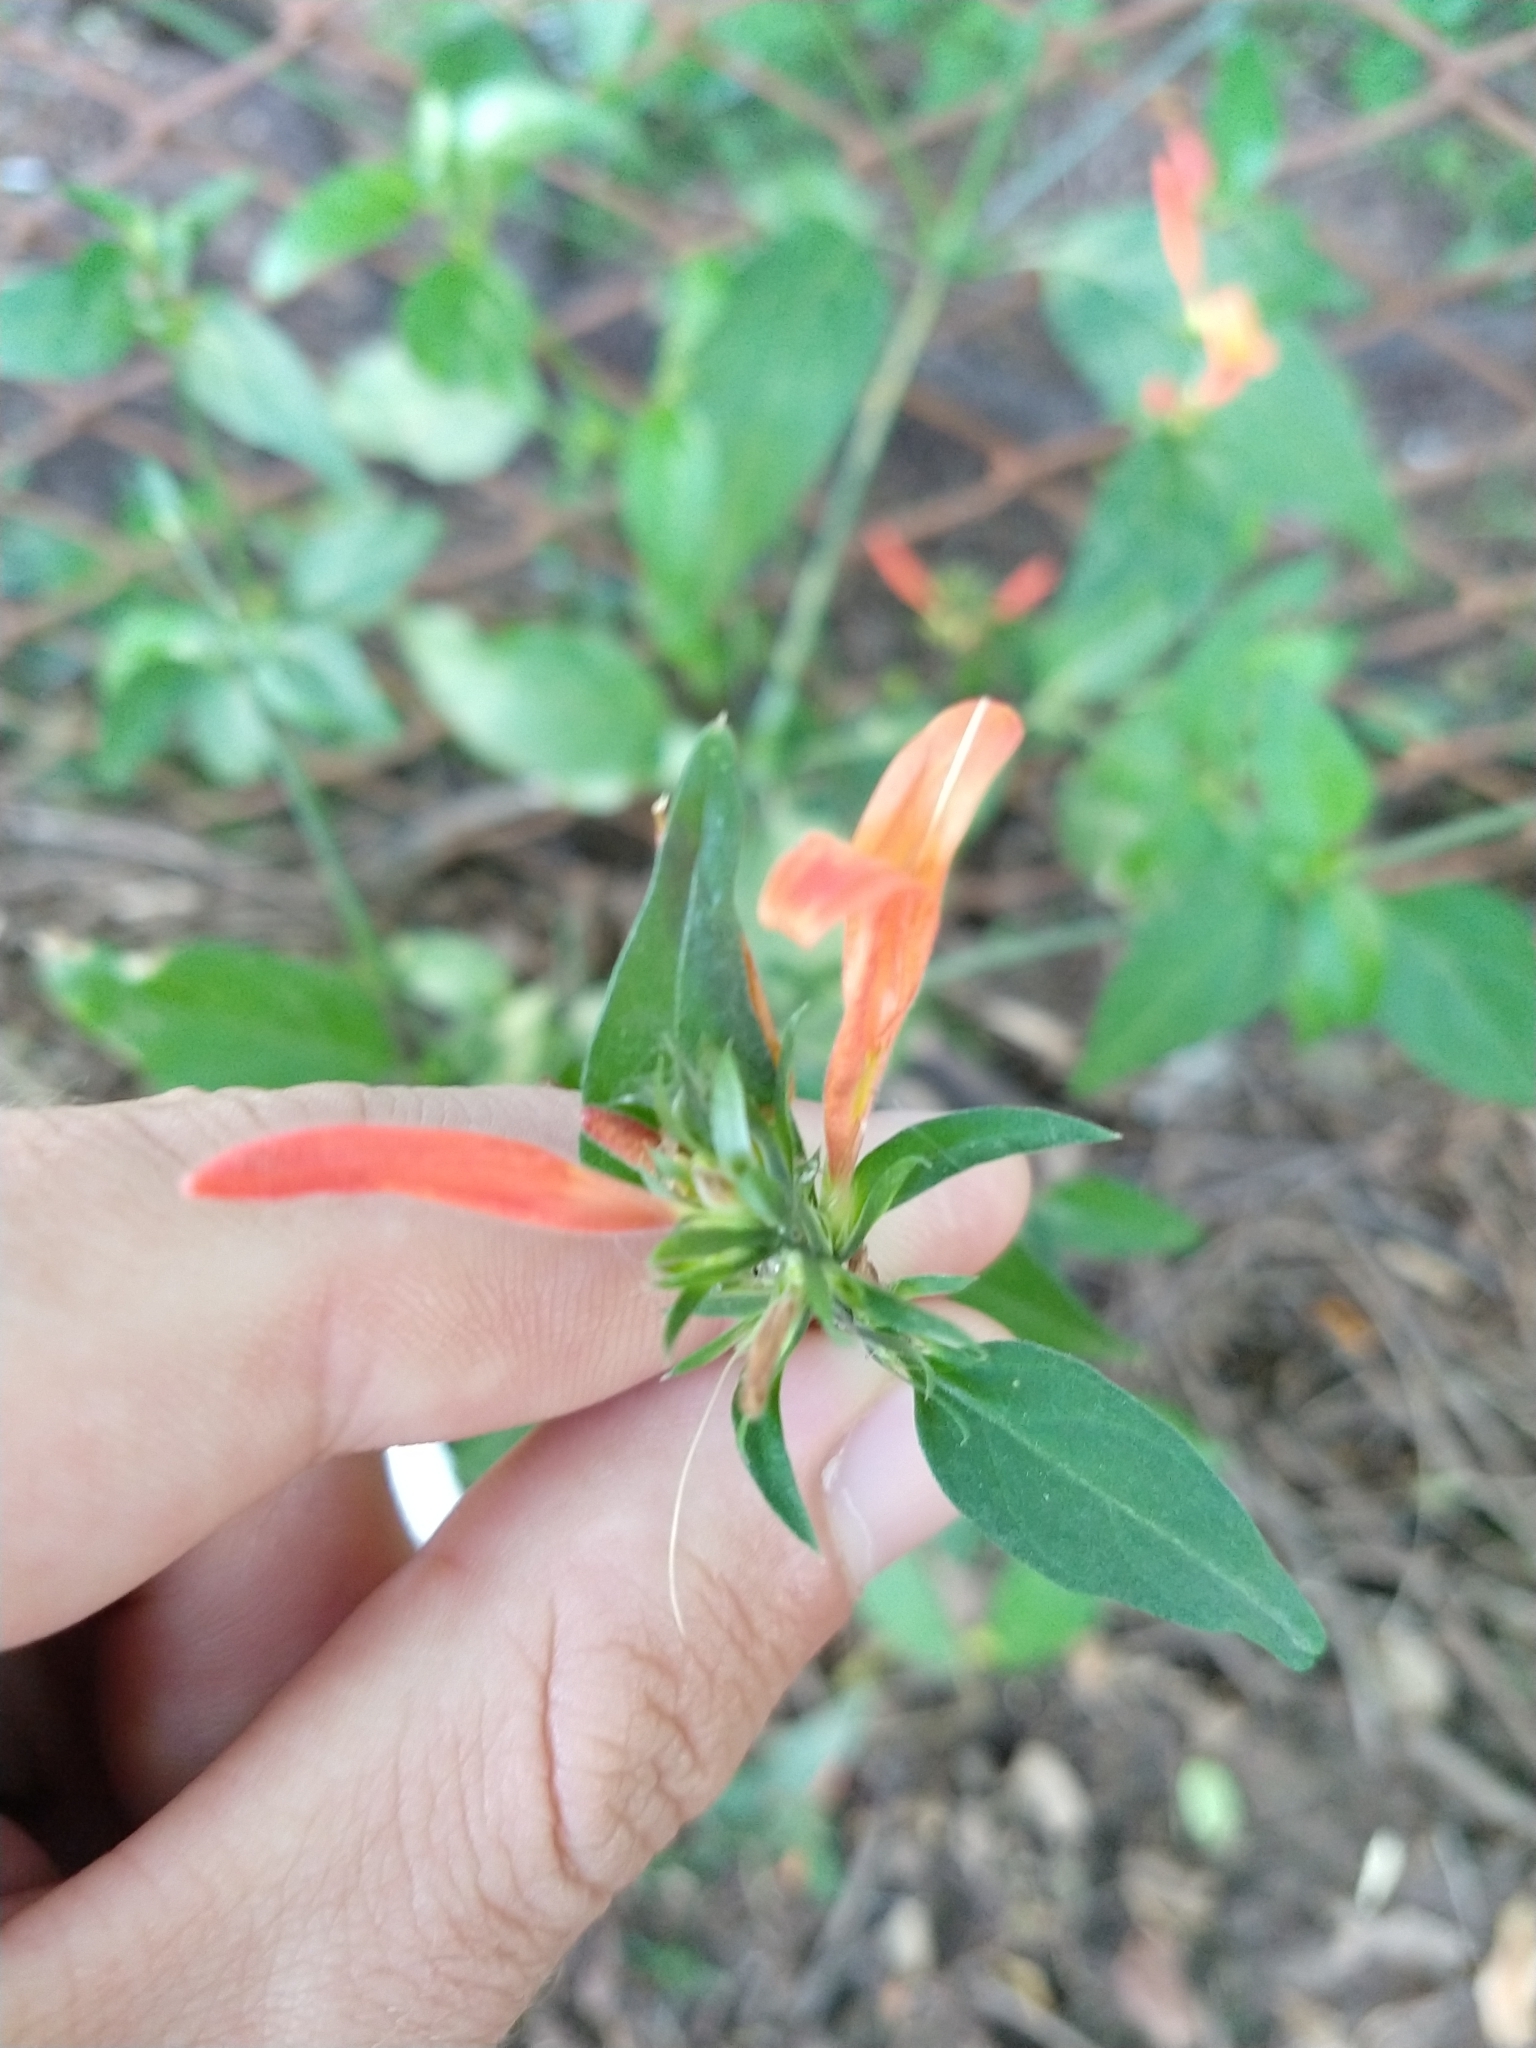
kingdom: Plantae
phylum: Tracheophyta
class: Magnoliopsida
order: Lamiales
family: Acanthaceae
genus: Dicliptera
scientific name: Dicliptera squarrosa
